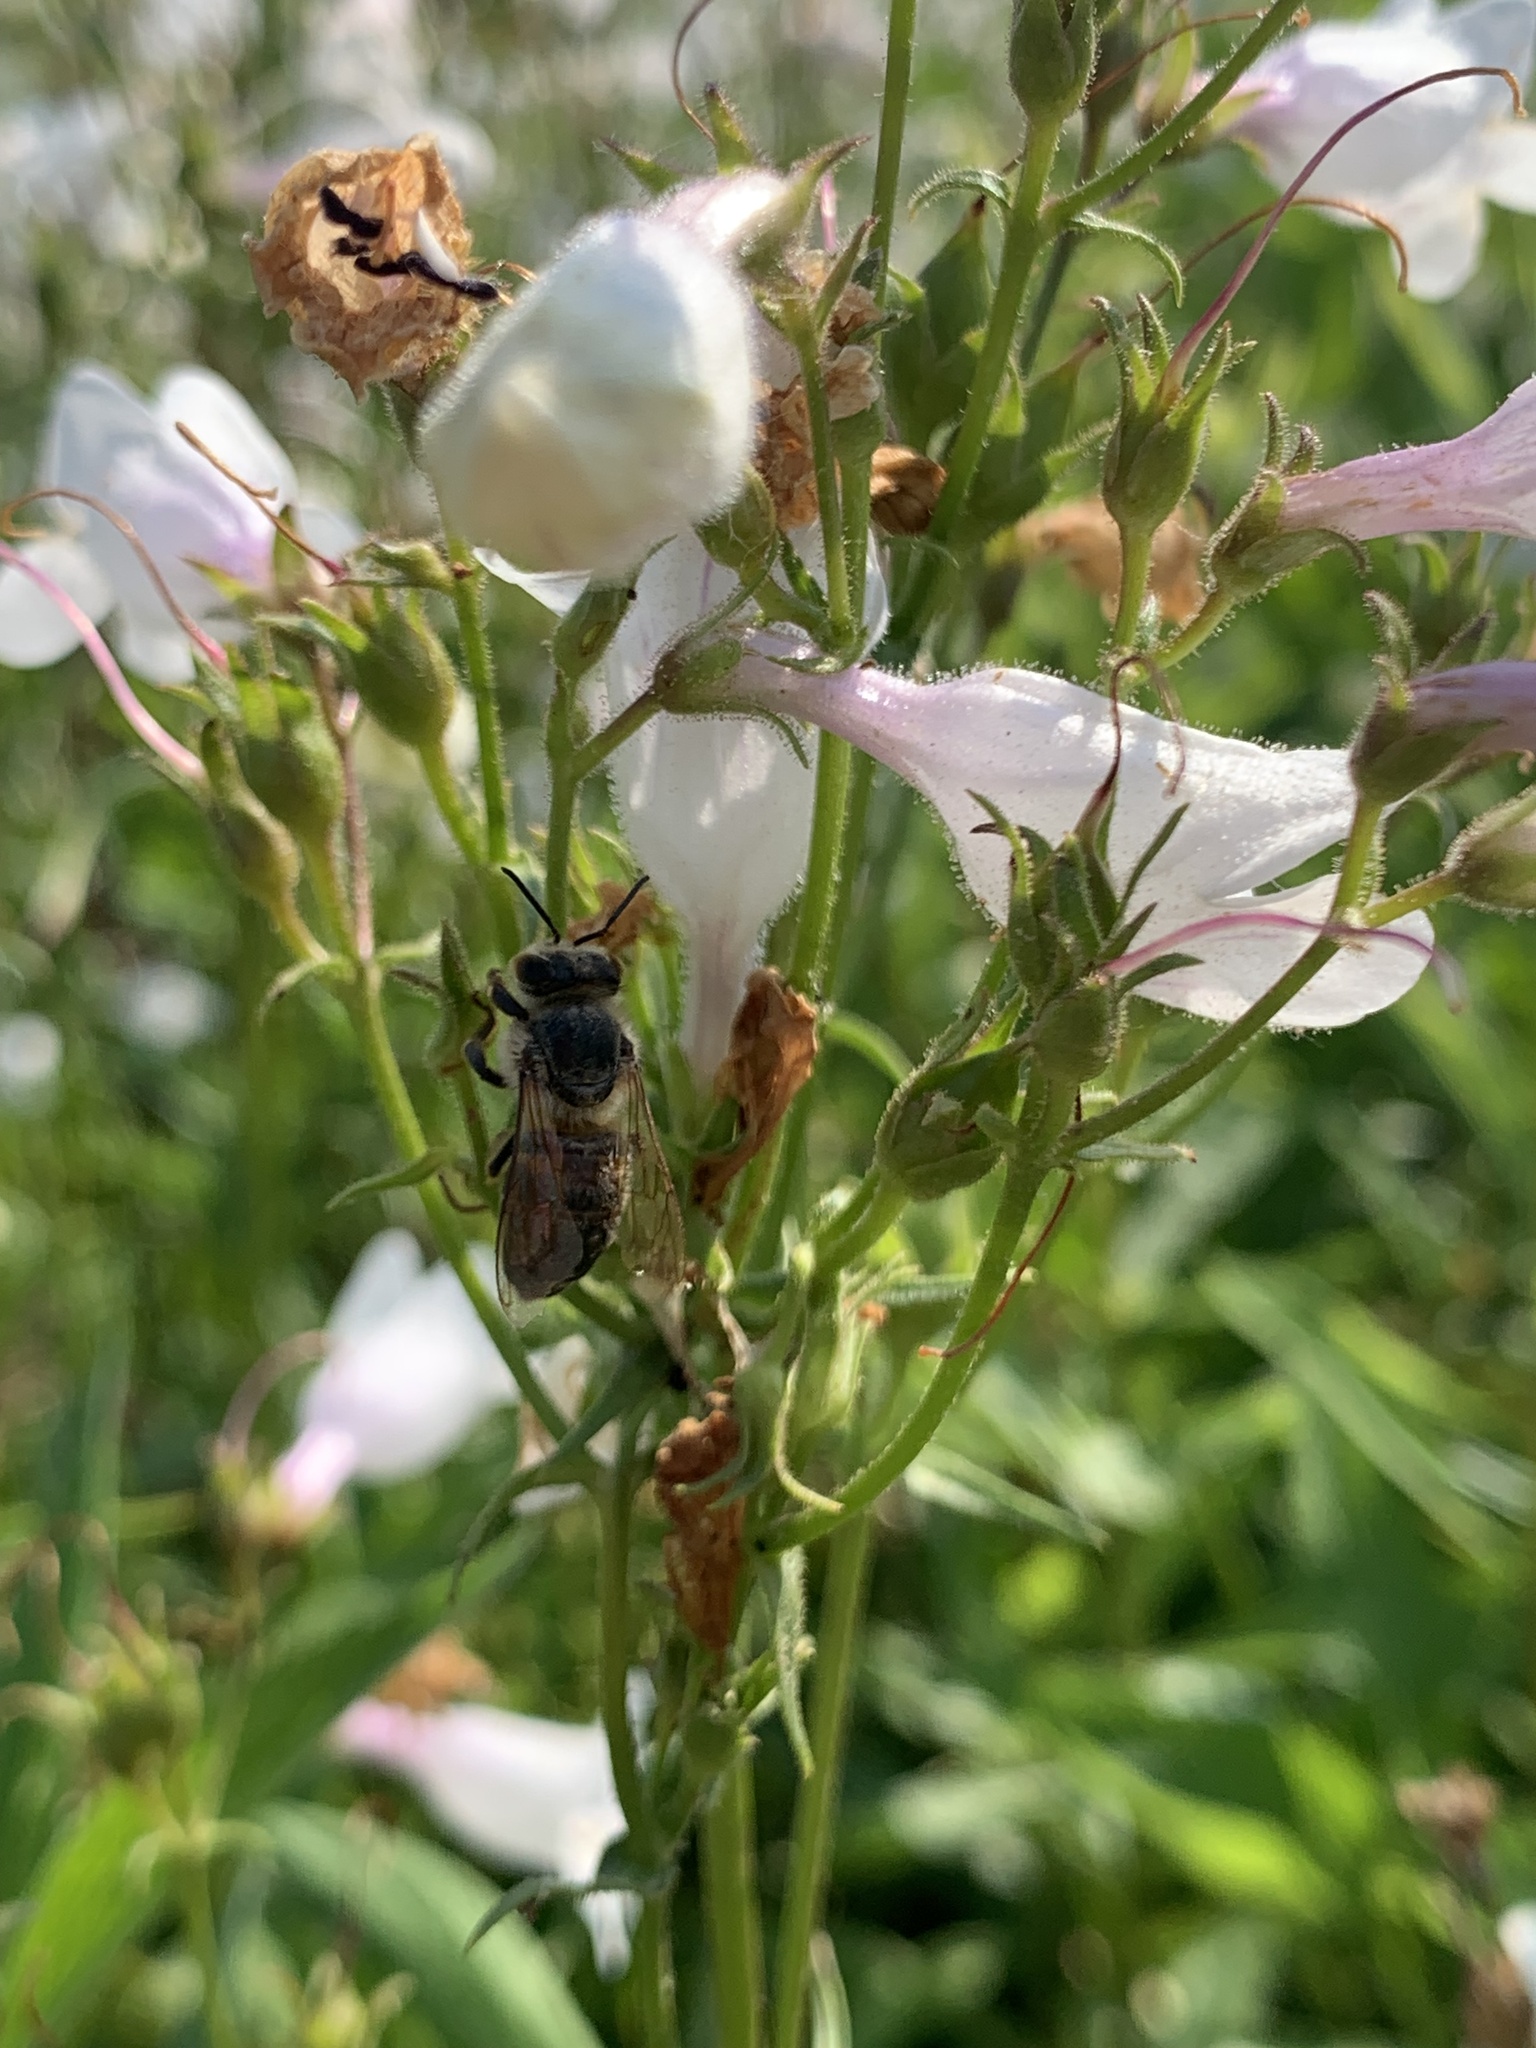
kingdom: Animalia
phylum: Arthropoda
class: Insecta
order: Hymenoptera
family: Apidae
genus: Apis
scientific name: Apis mellifera
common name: Honey bee
